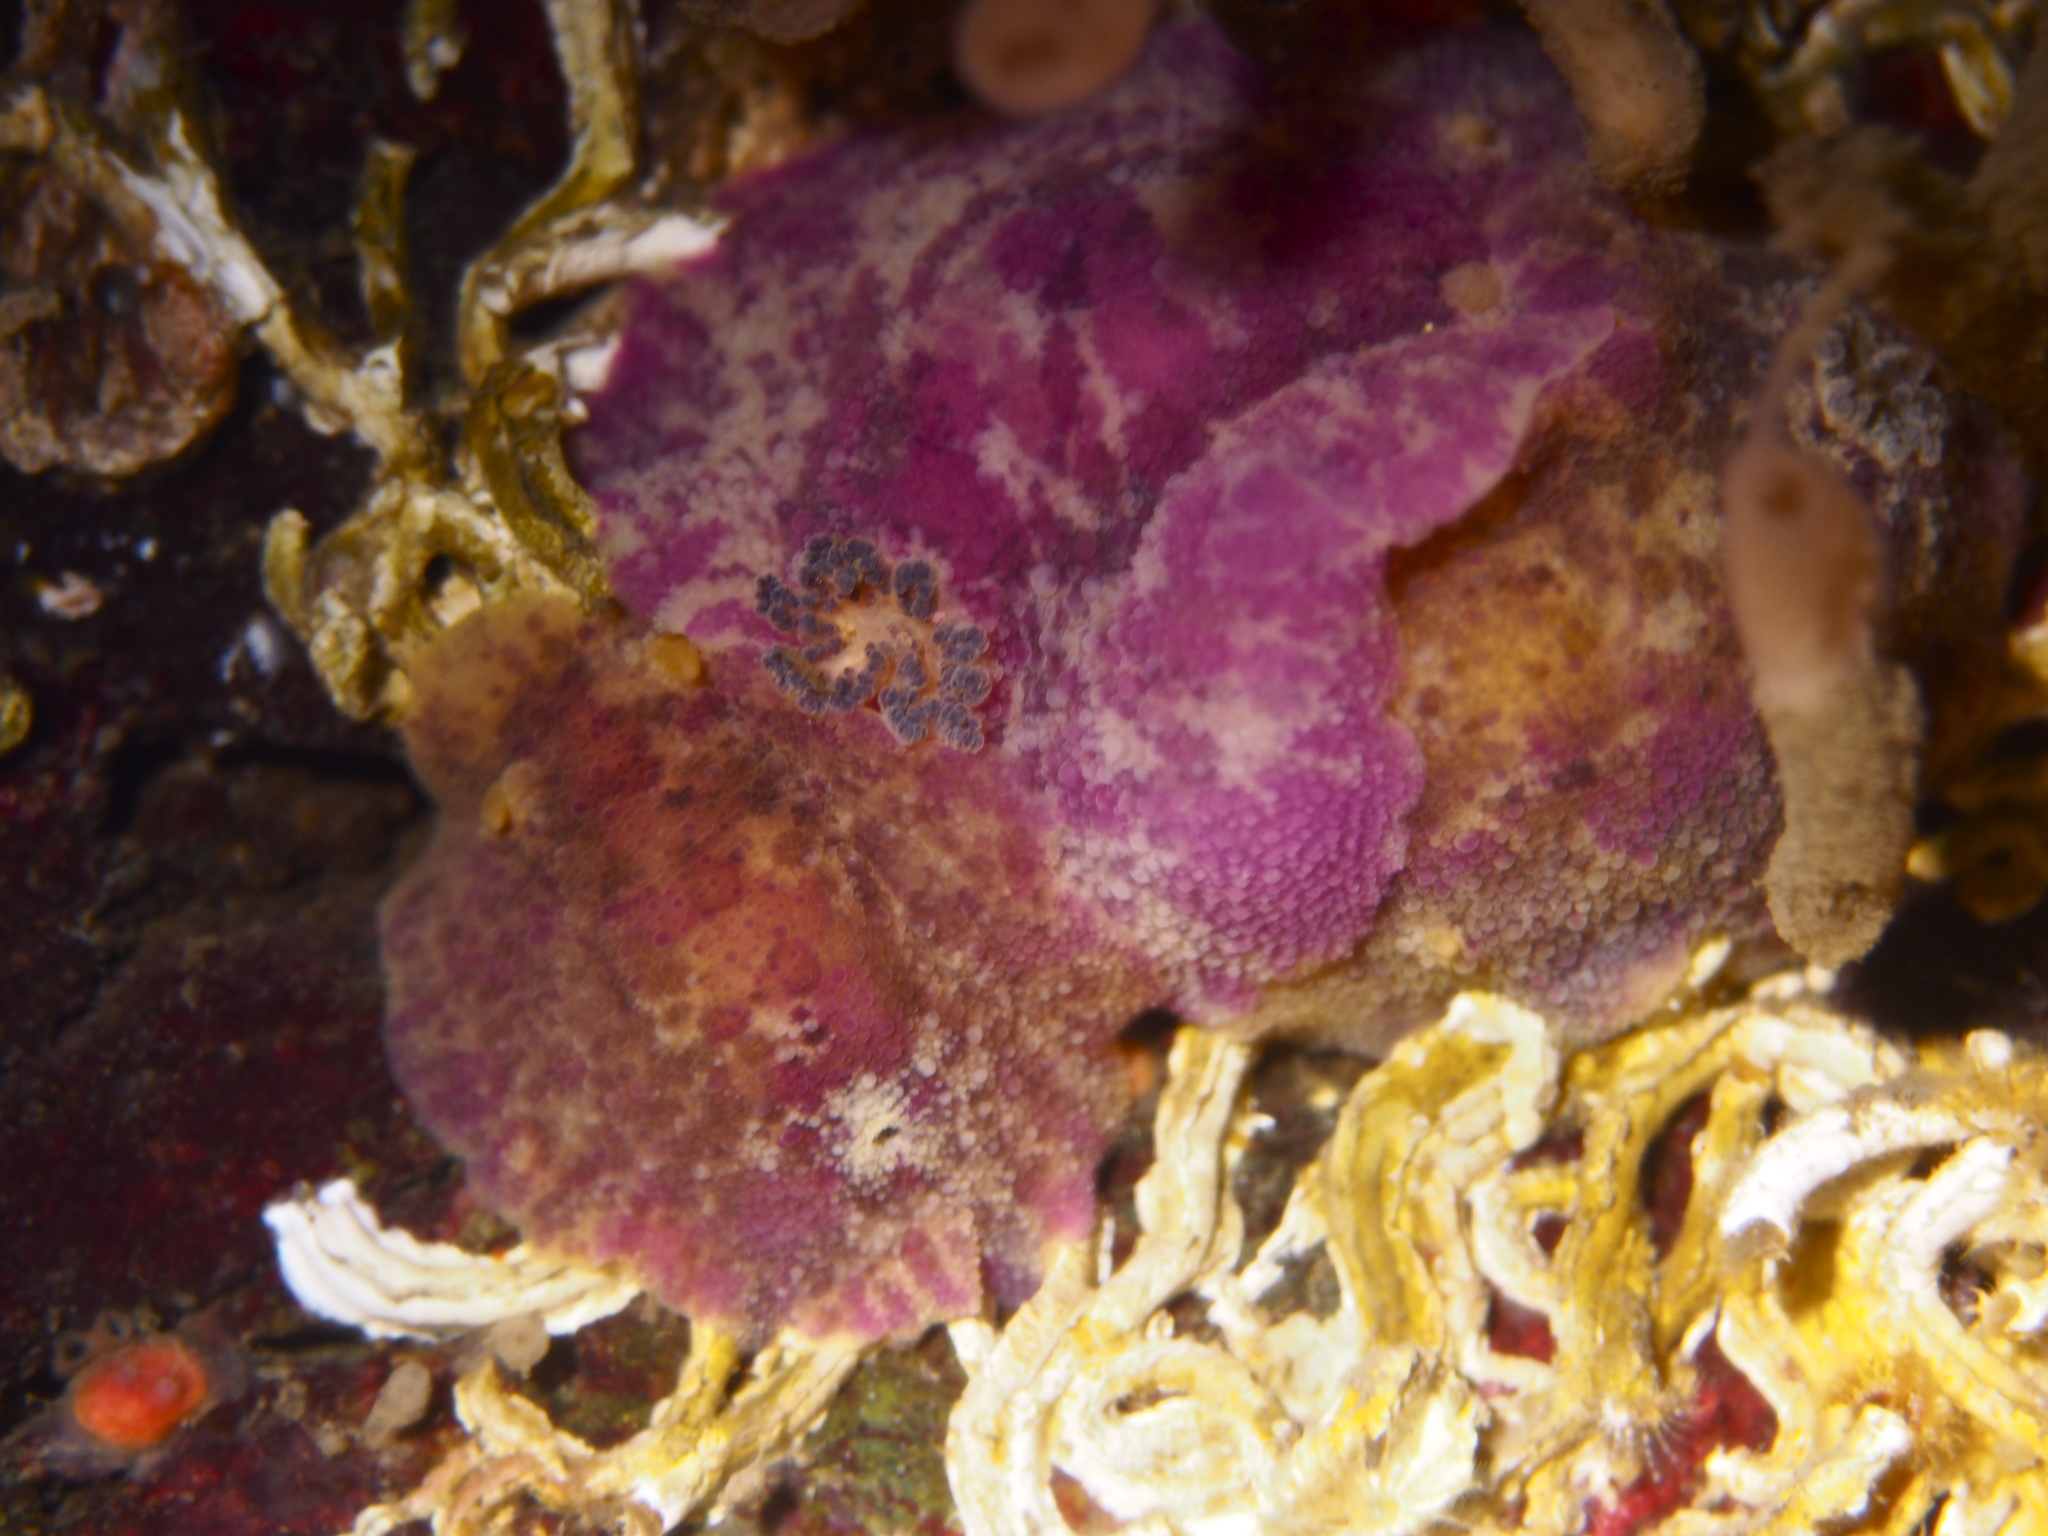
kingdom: Animalia
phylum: Mollusca
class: Gastropoda
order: Nudibranchia
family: Dorididae
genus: Doris
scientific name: Doris pseudoargus
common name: Sea lemon
